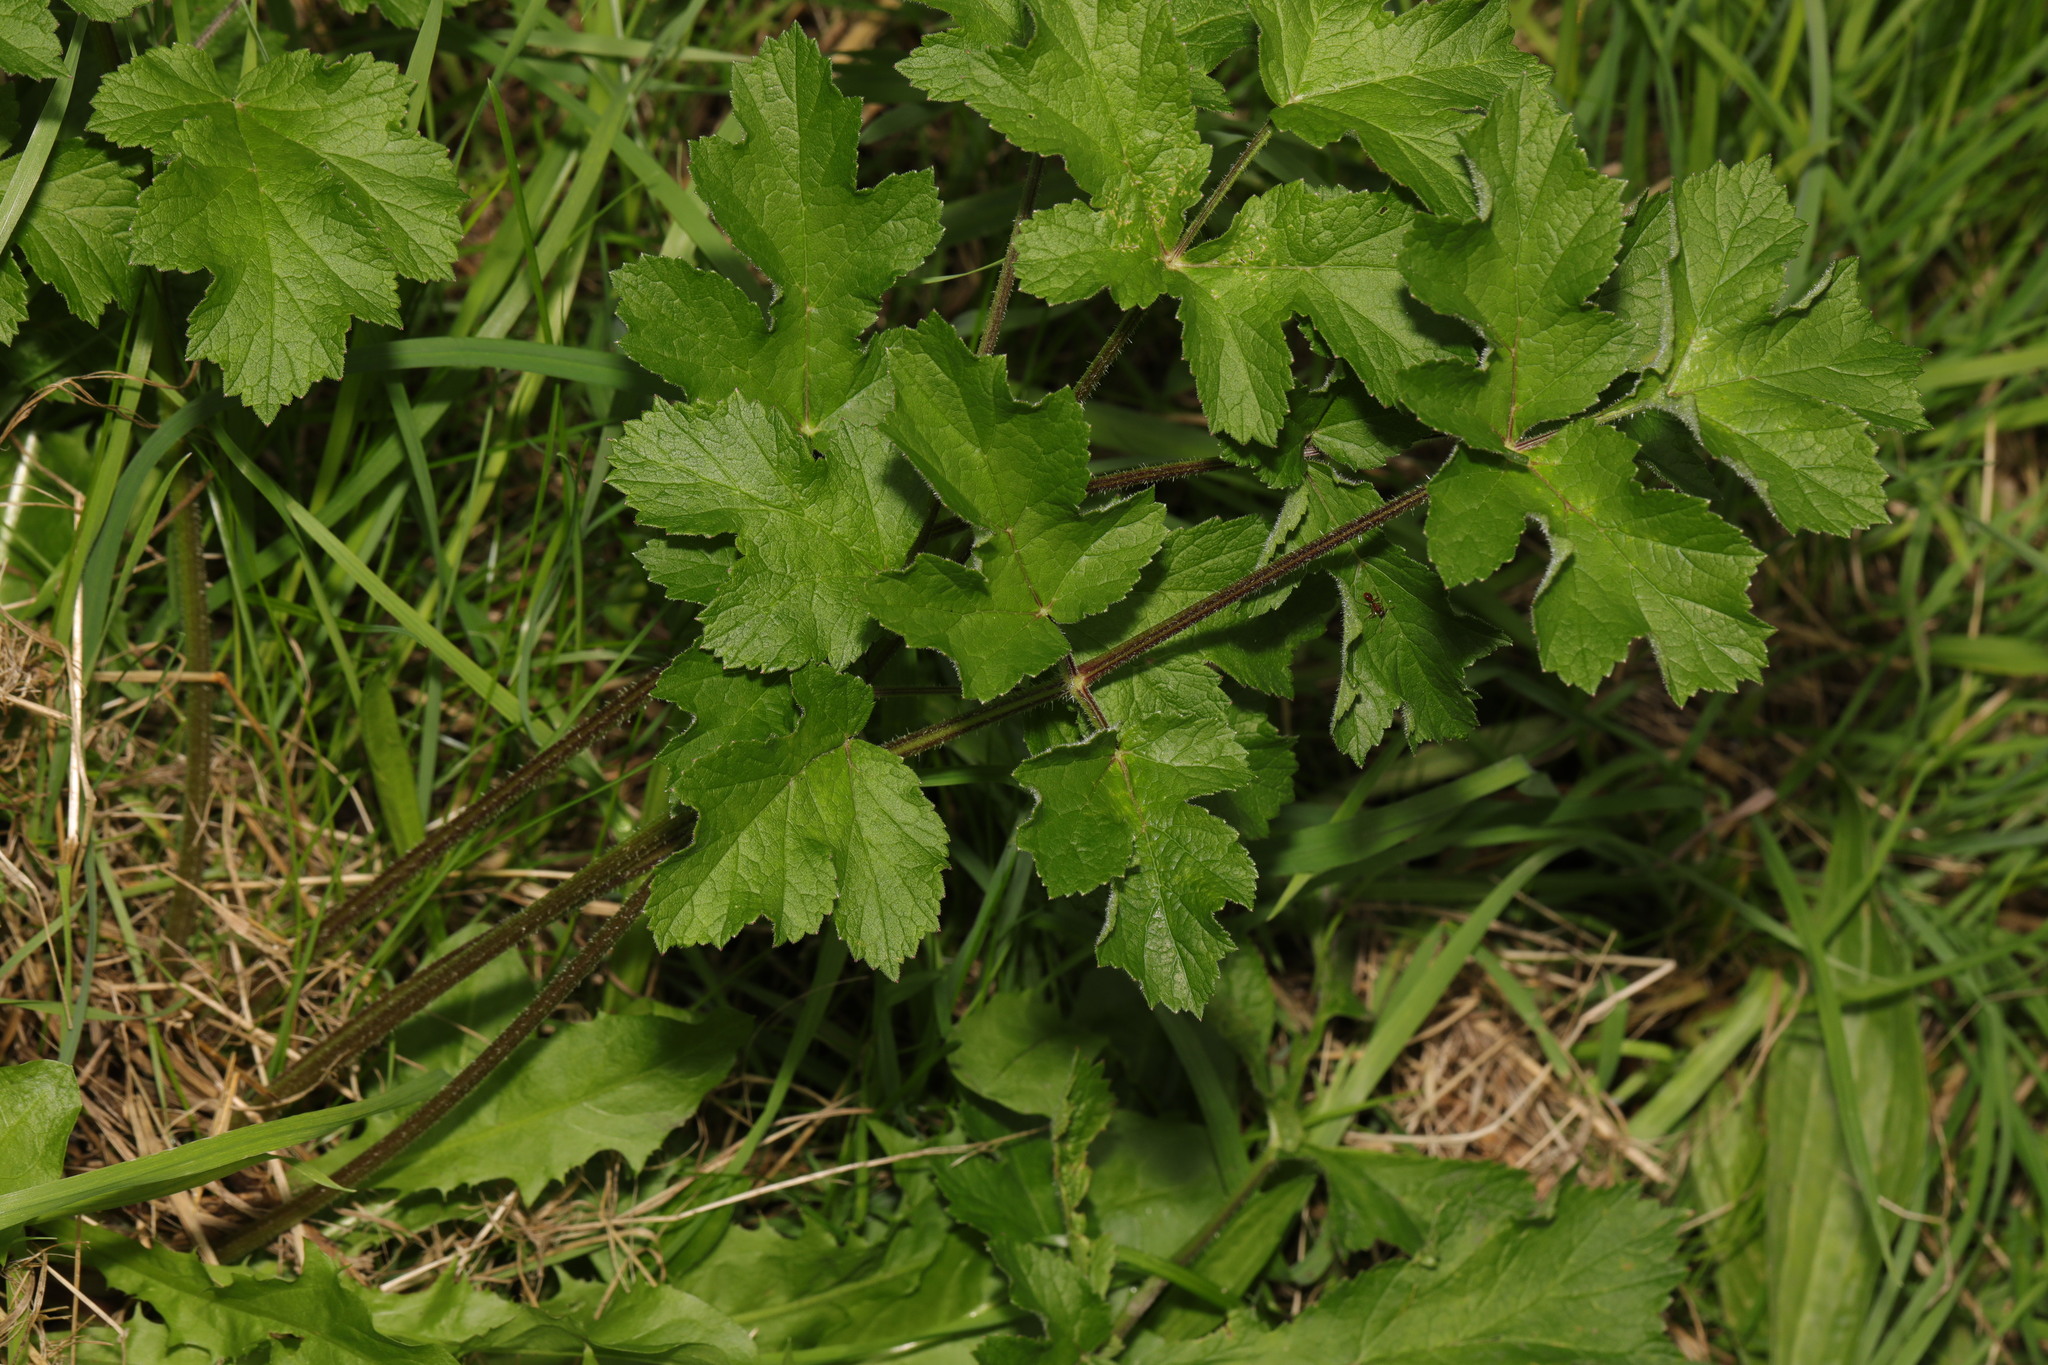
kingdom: Plantae
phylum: Tracheophyta
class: Magnoliopsida
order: Apiales
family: Apiaceae
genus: Heracleum
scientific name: Heracleum sphondylium
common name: Hogweed
